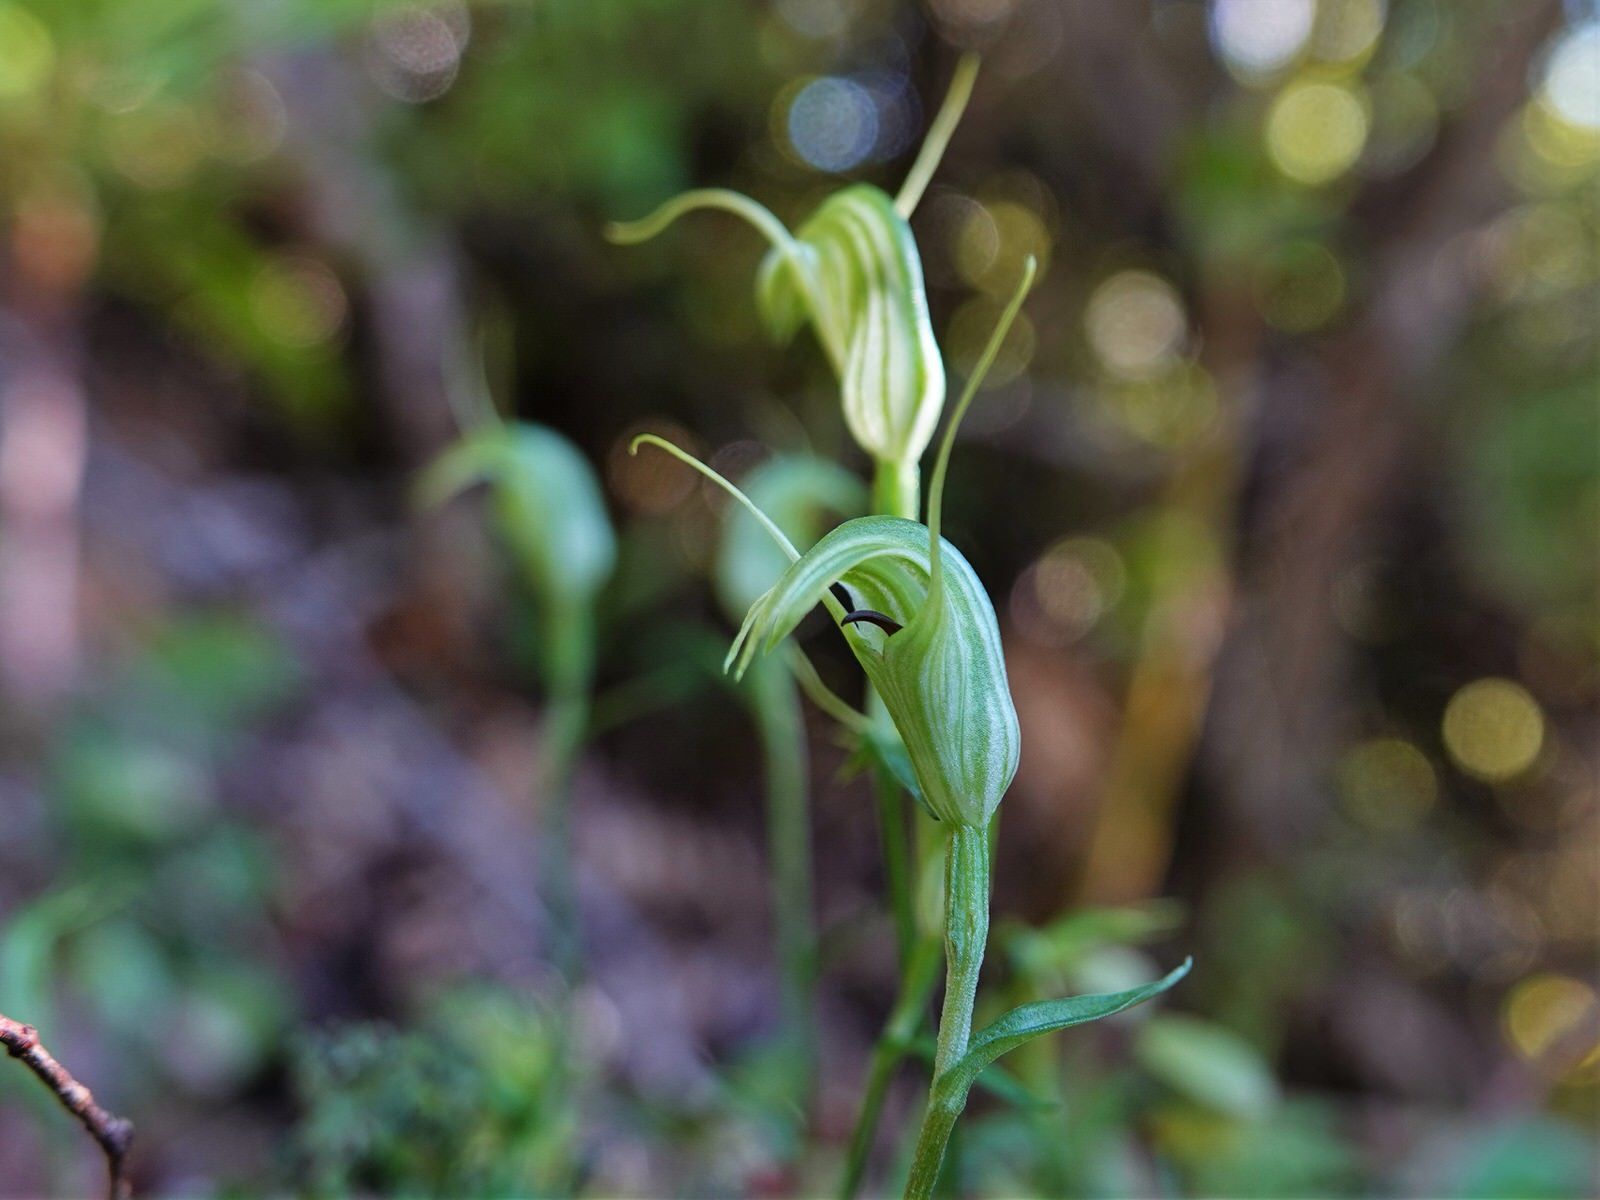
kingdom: Plantae
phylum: Tracheophyta
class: Liliopsida
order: Asparagales
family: Orchidaceae
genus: Pterostylis
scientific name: Pterostylis trullifolia
